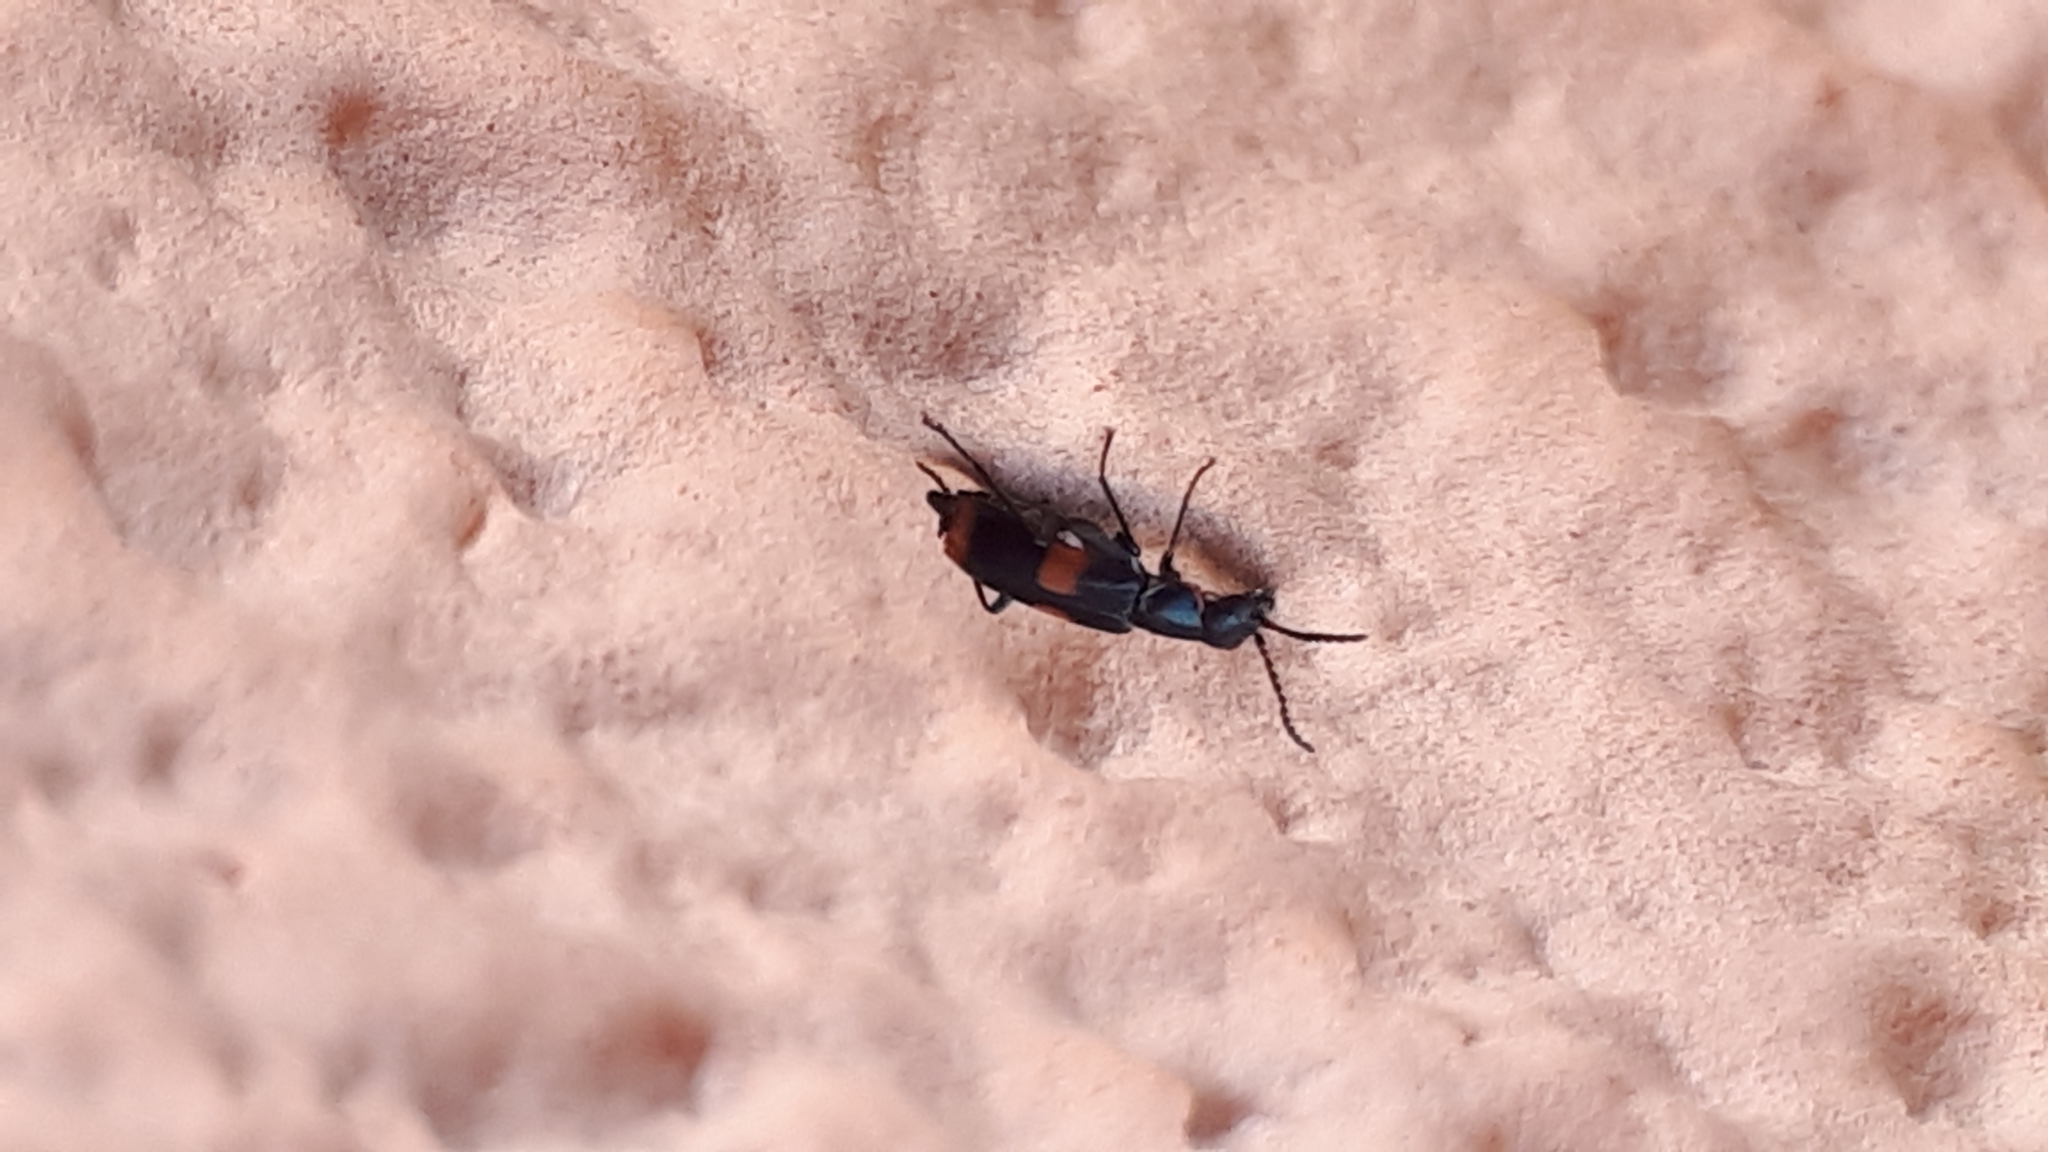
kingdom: Animalia
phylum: Arthropoda
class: Insecta
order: Coleoptera
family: Melyridae
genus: Anthocomus
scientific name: Anthocomus fasciatus
